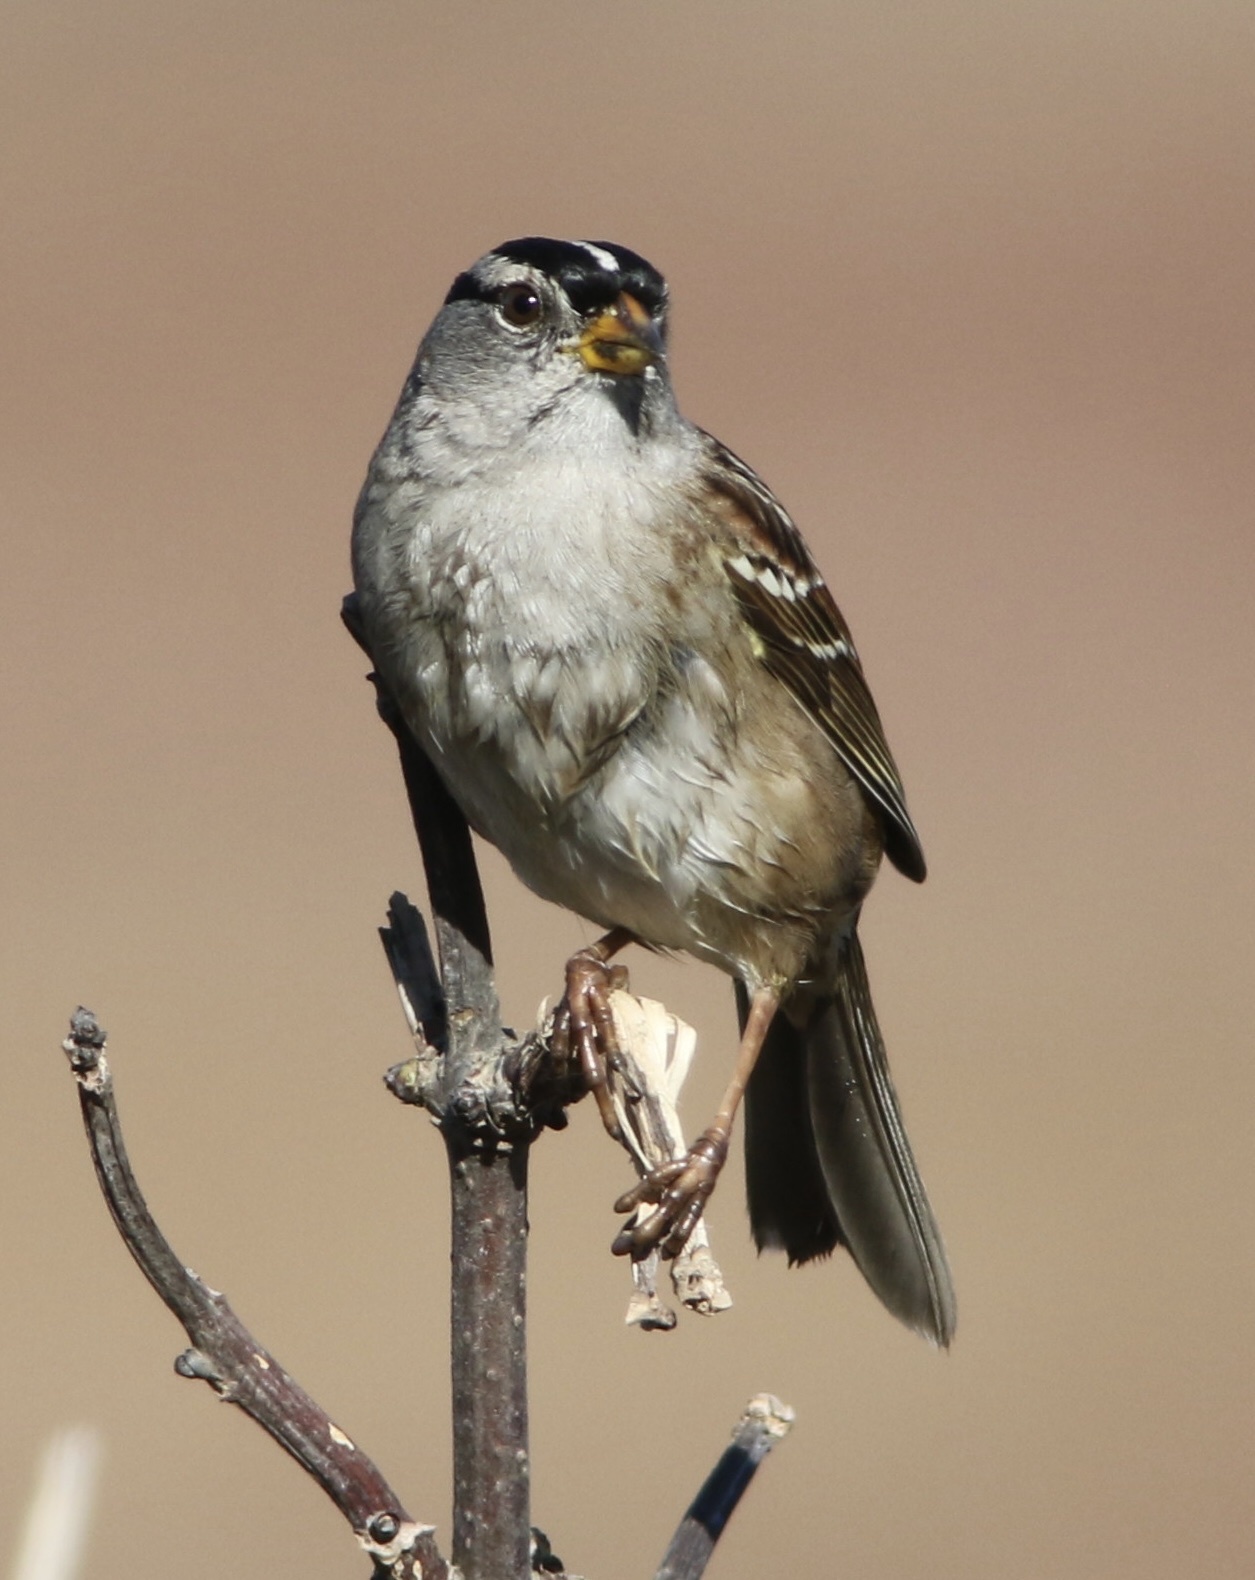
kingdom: Animalia
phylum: Chordata
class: Aves
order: Passeriformes
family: Passerellidae
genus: Zonotrichia
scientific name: Zonotrichia leucophrys
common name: White-crowned sparrow
